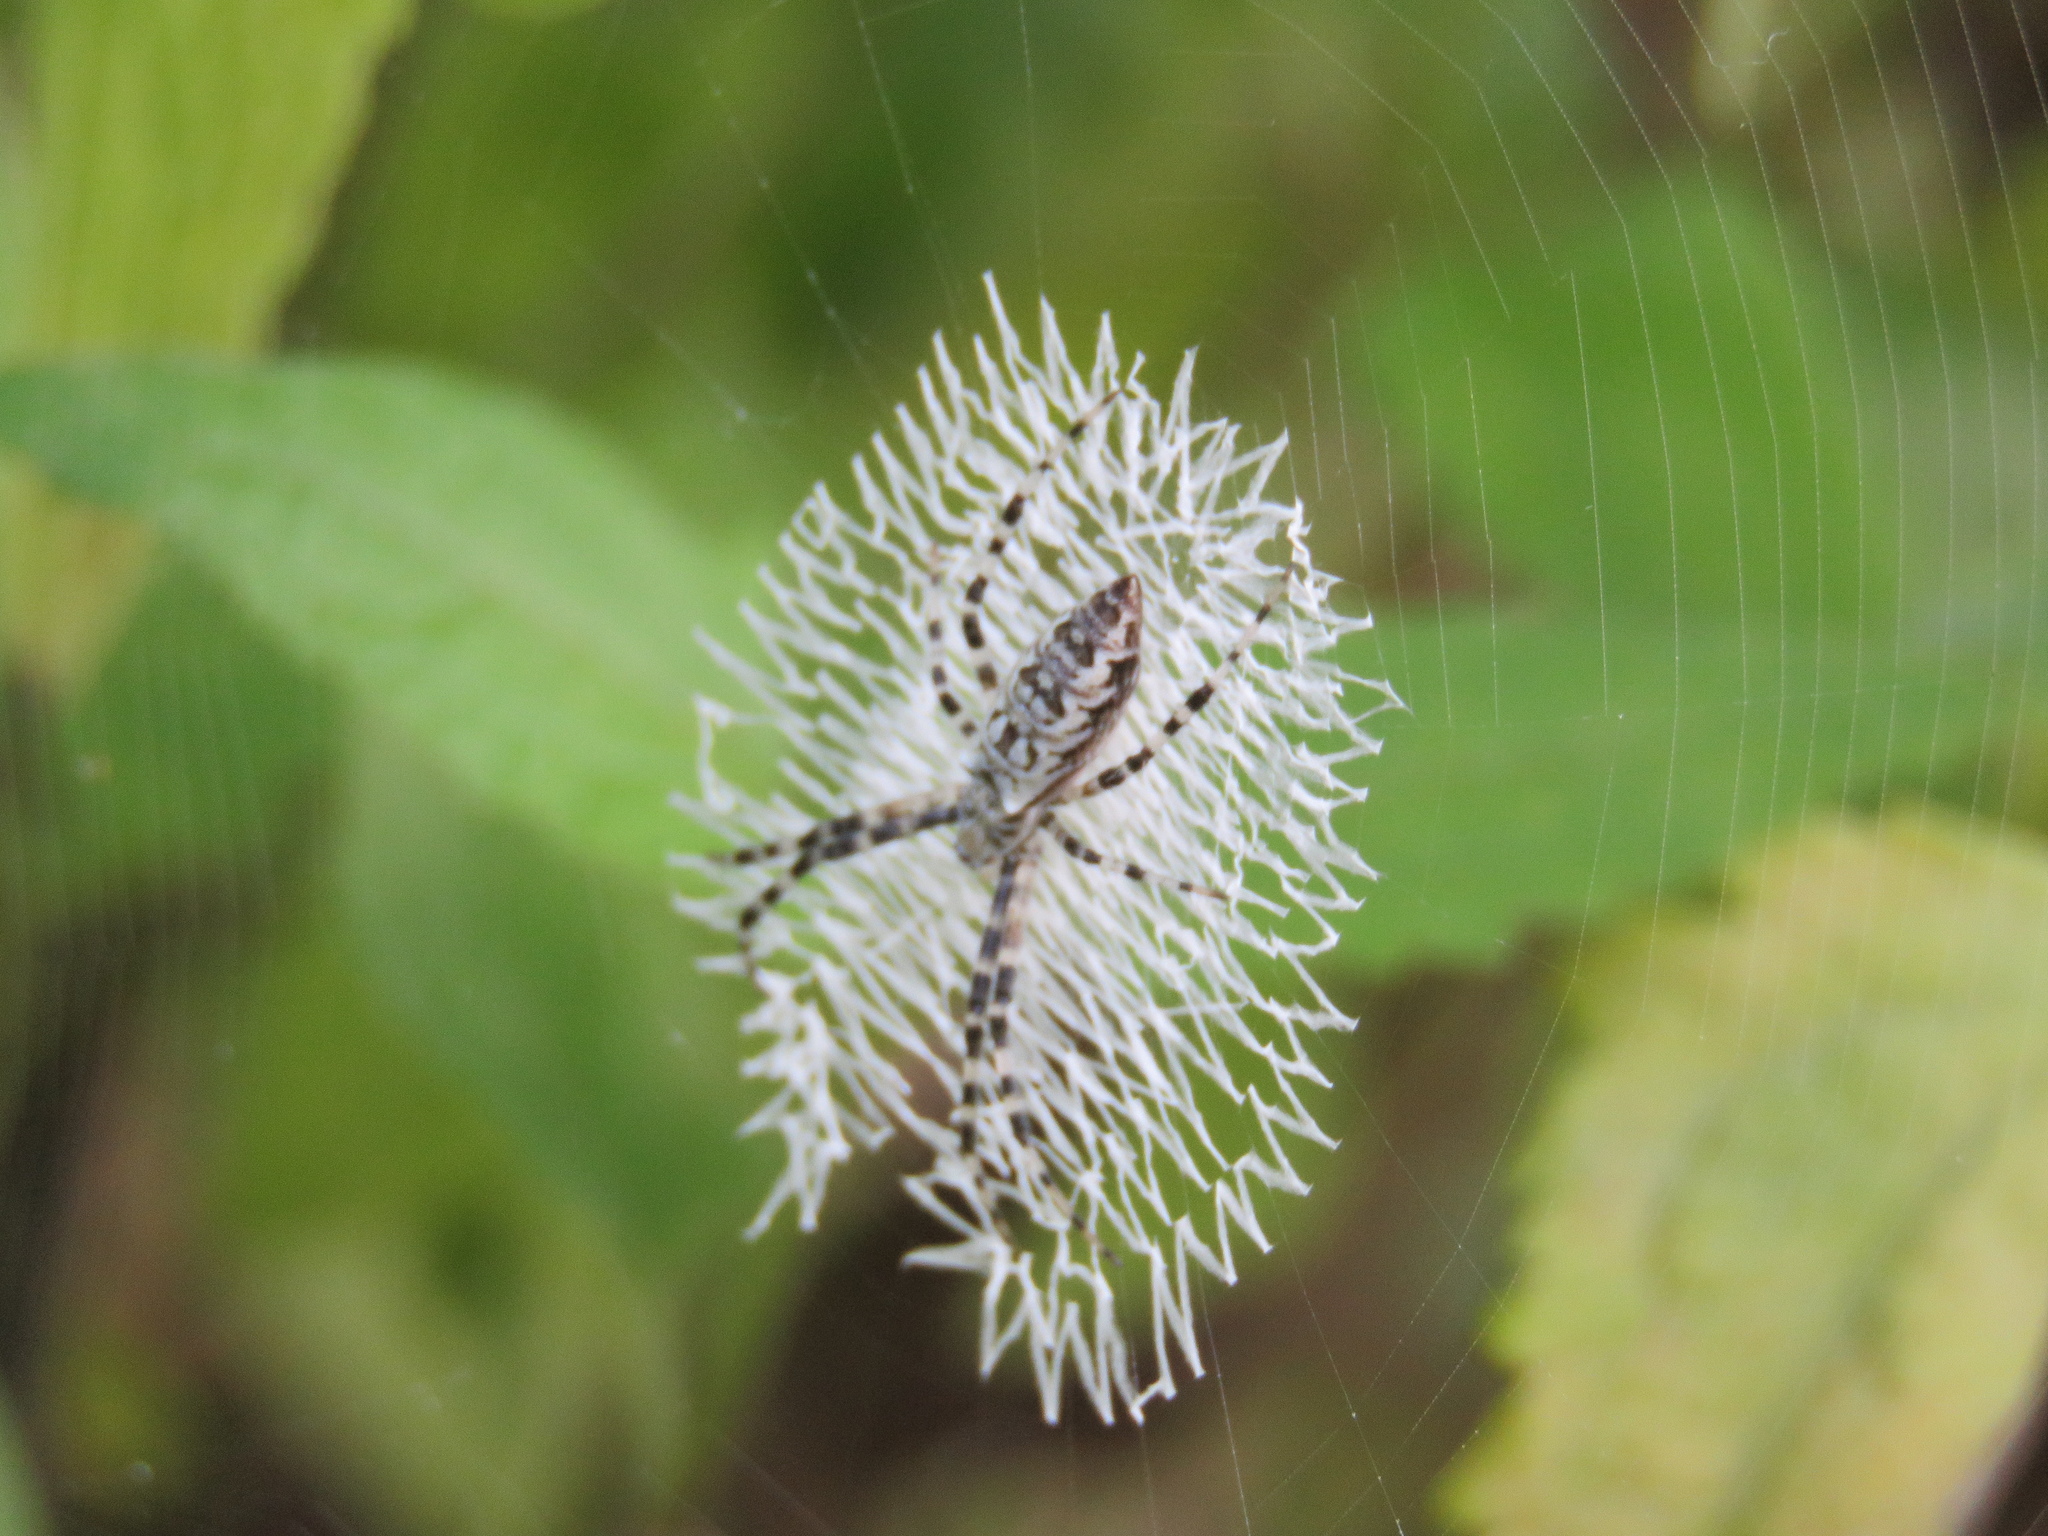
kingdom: Animalia
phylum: Arthropoda
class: Arachnida
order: Araneae
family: Araneidae
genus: Argiope
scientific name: Argiope aurantia
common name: Orb weavers
